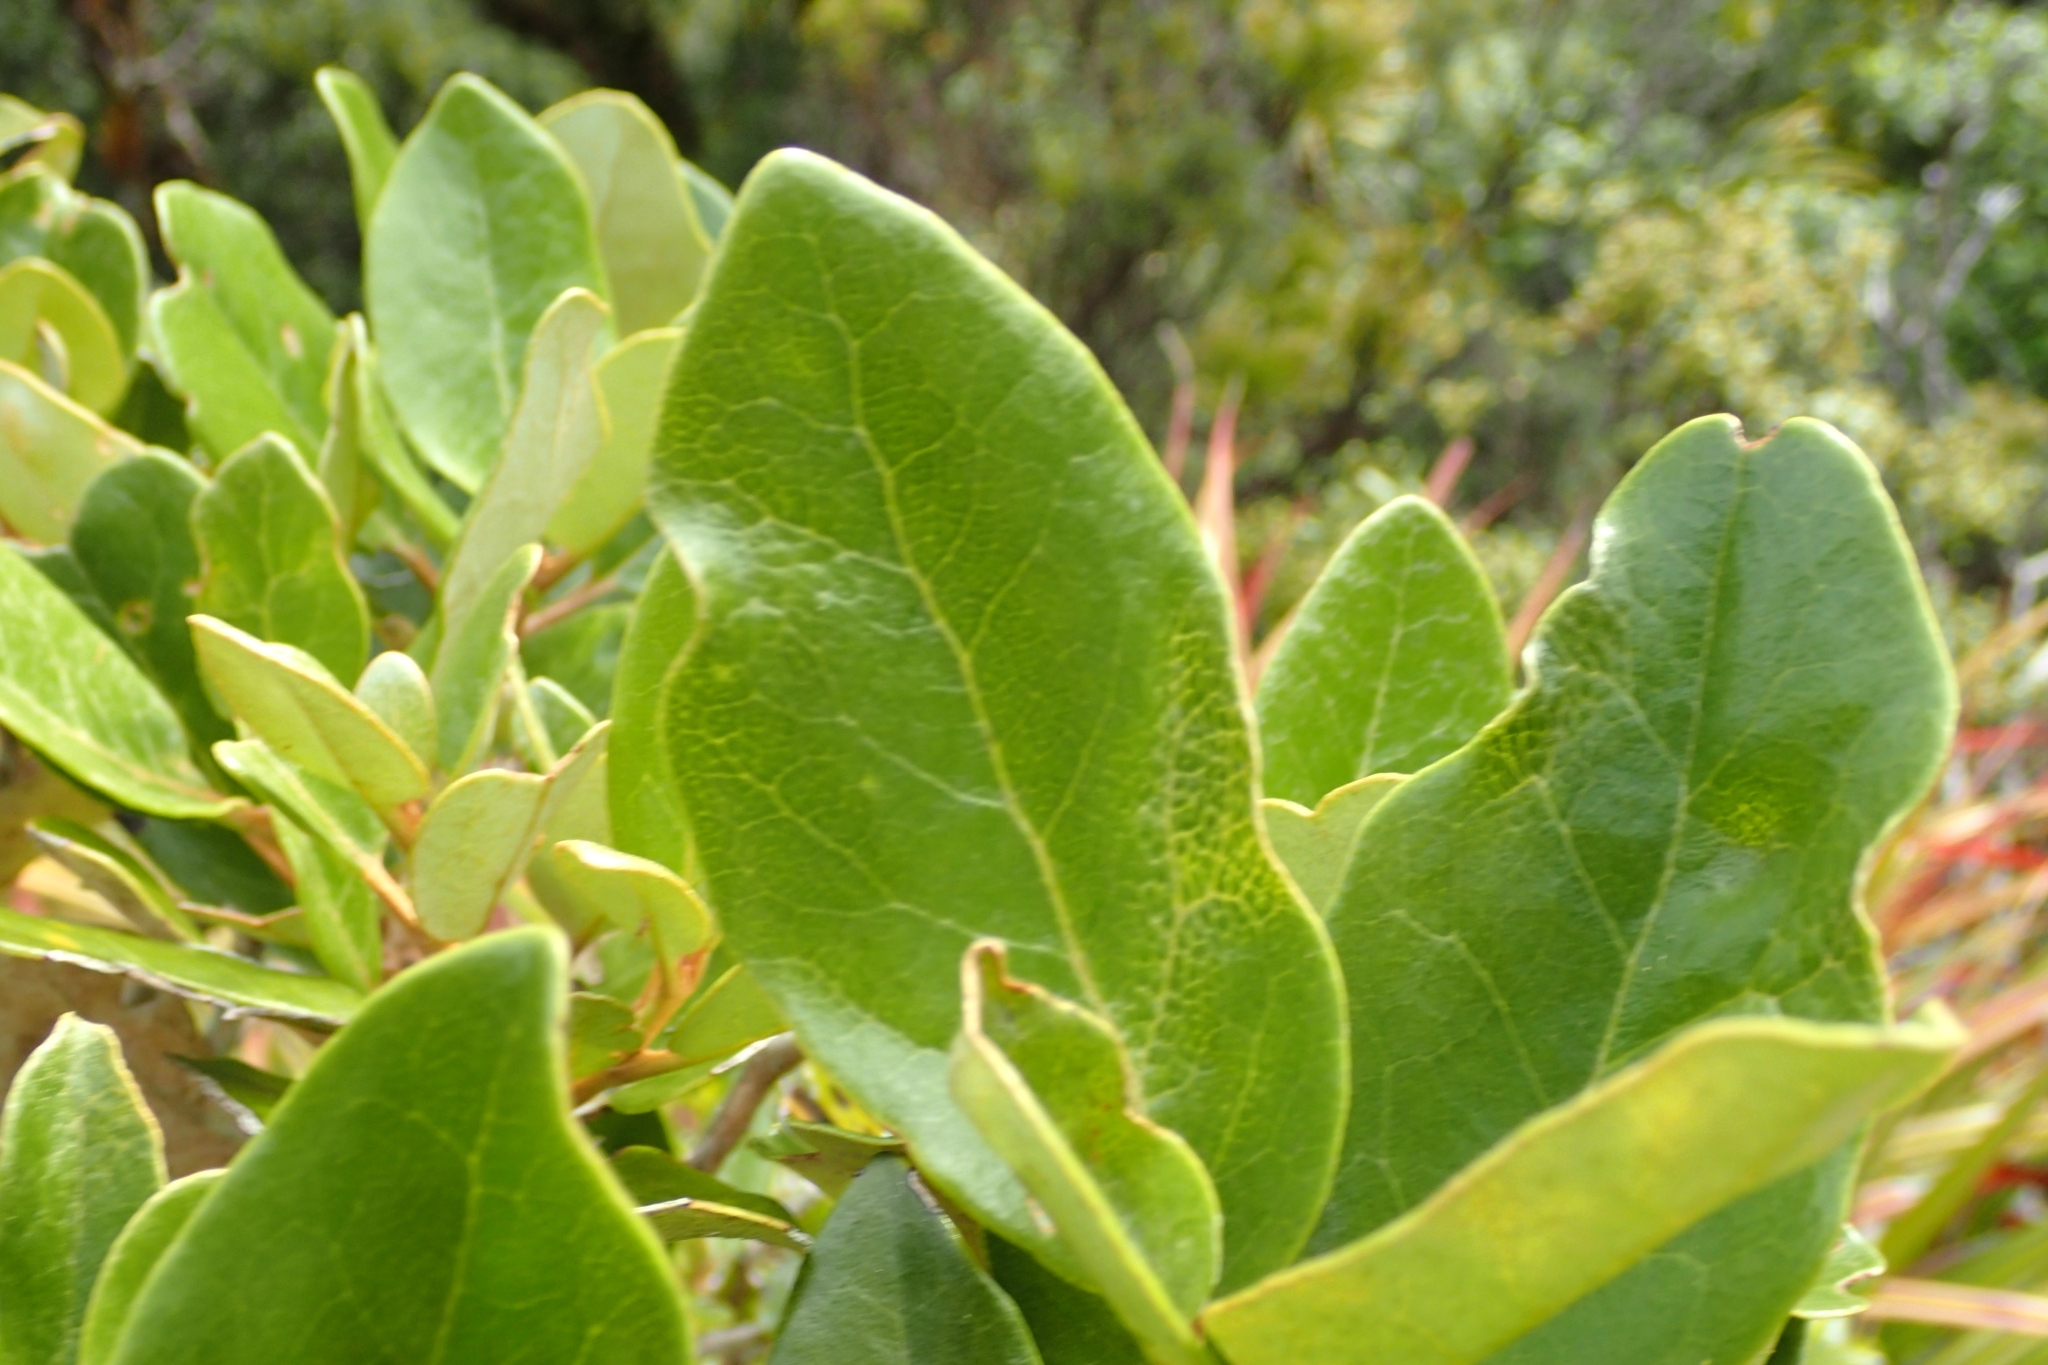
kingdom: Plantae
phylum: Tracheophyta
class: Magnoliopsida
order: Asterales
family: Asteraceae
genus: Olearia
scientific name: Olearia townsonii
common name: Coromandel tree daisy
